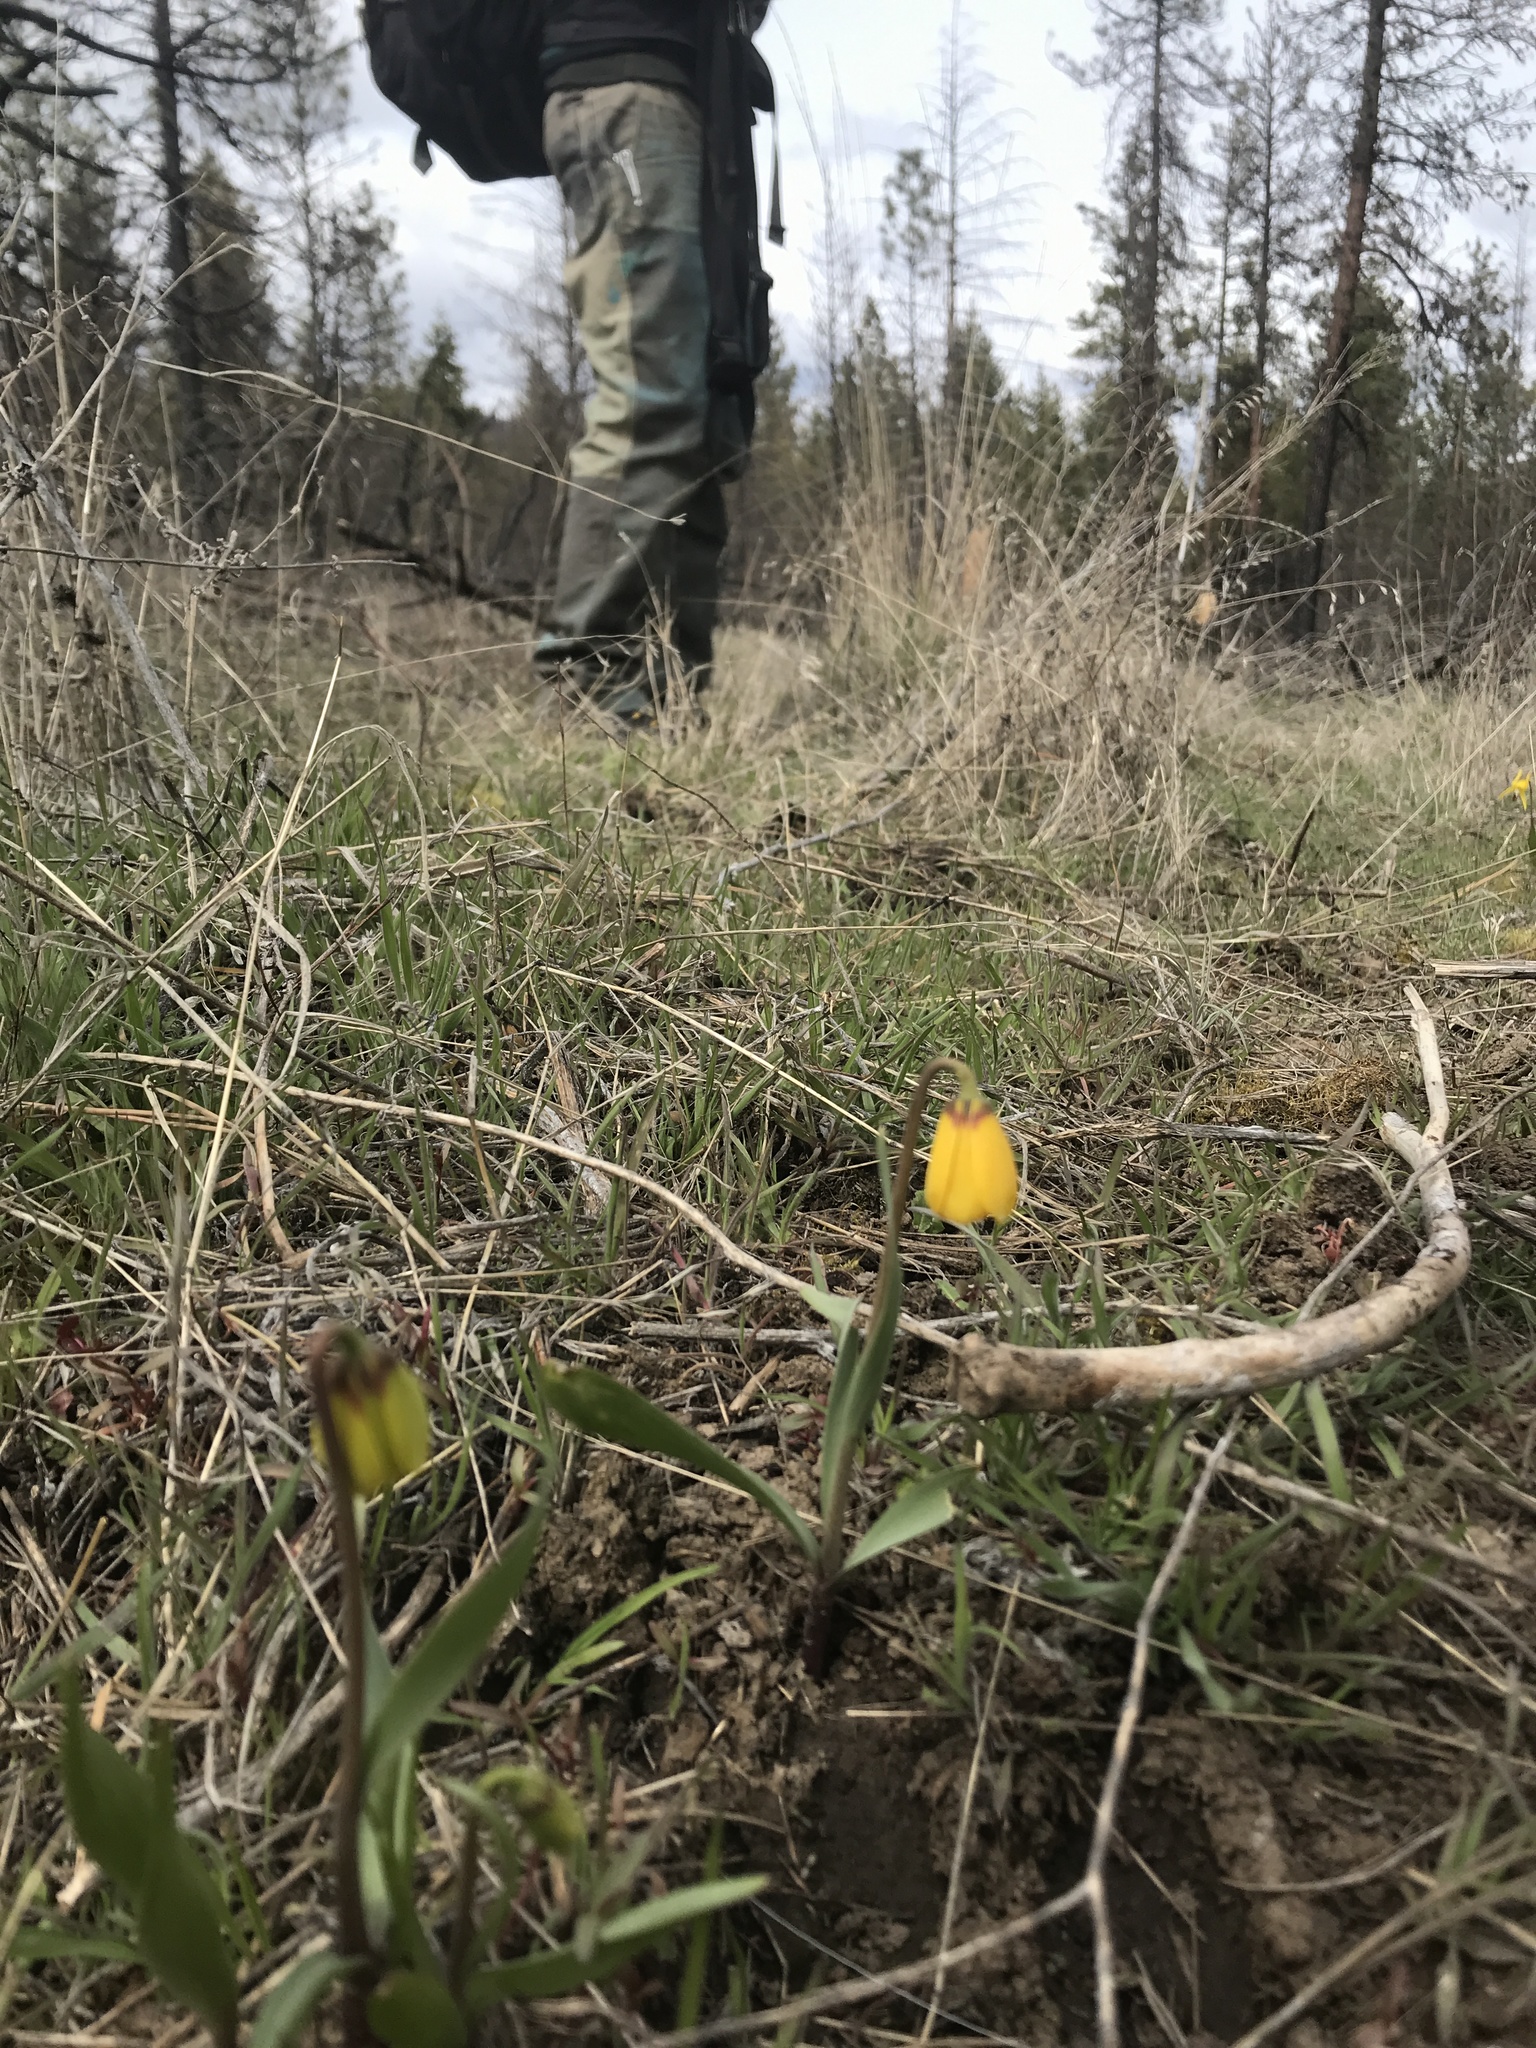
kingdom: Plantae
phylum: Tracheophyta
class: Liliopsida
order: Liliales
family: Liliaceae
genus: Fritillaria
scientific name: Fritillaria pudica
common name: Yellow fritillary
